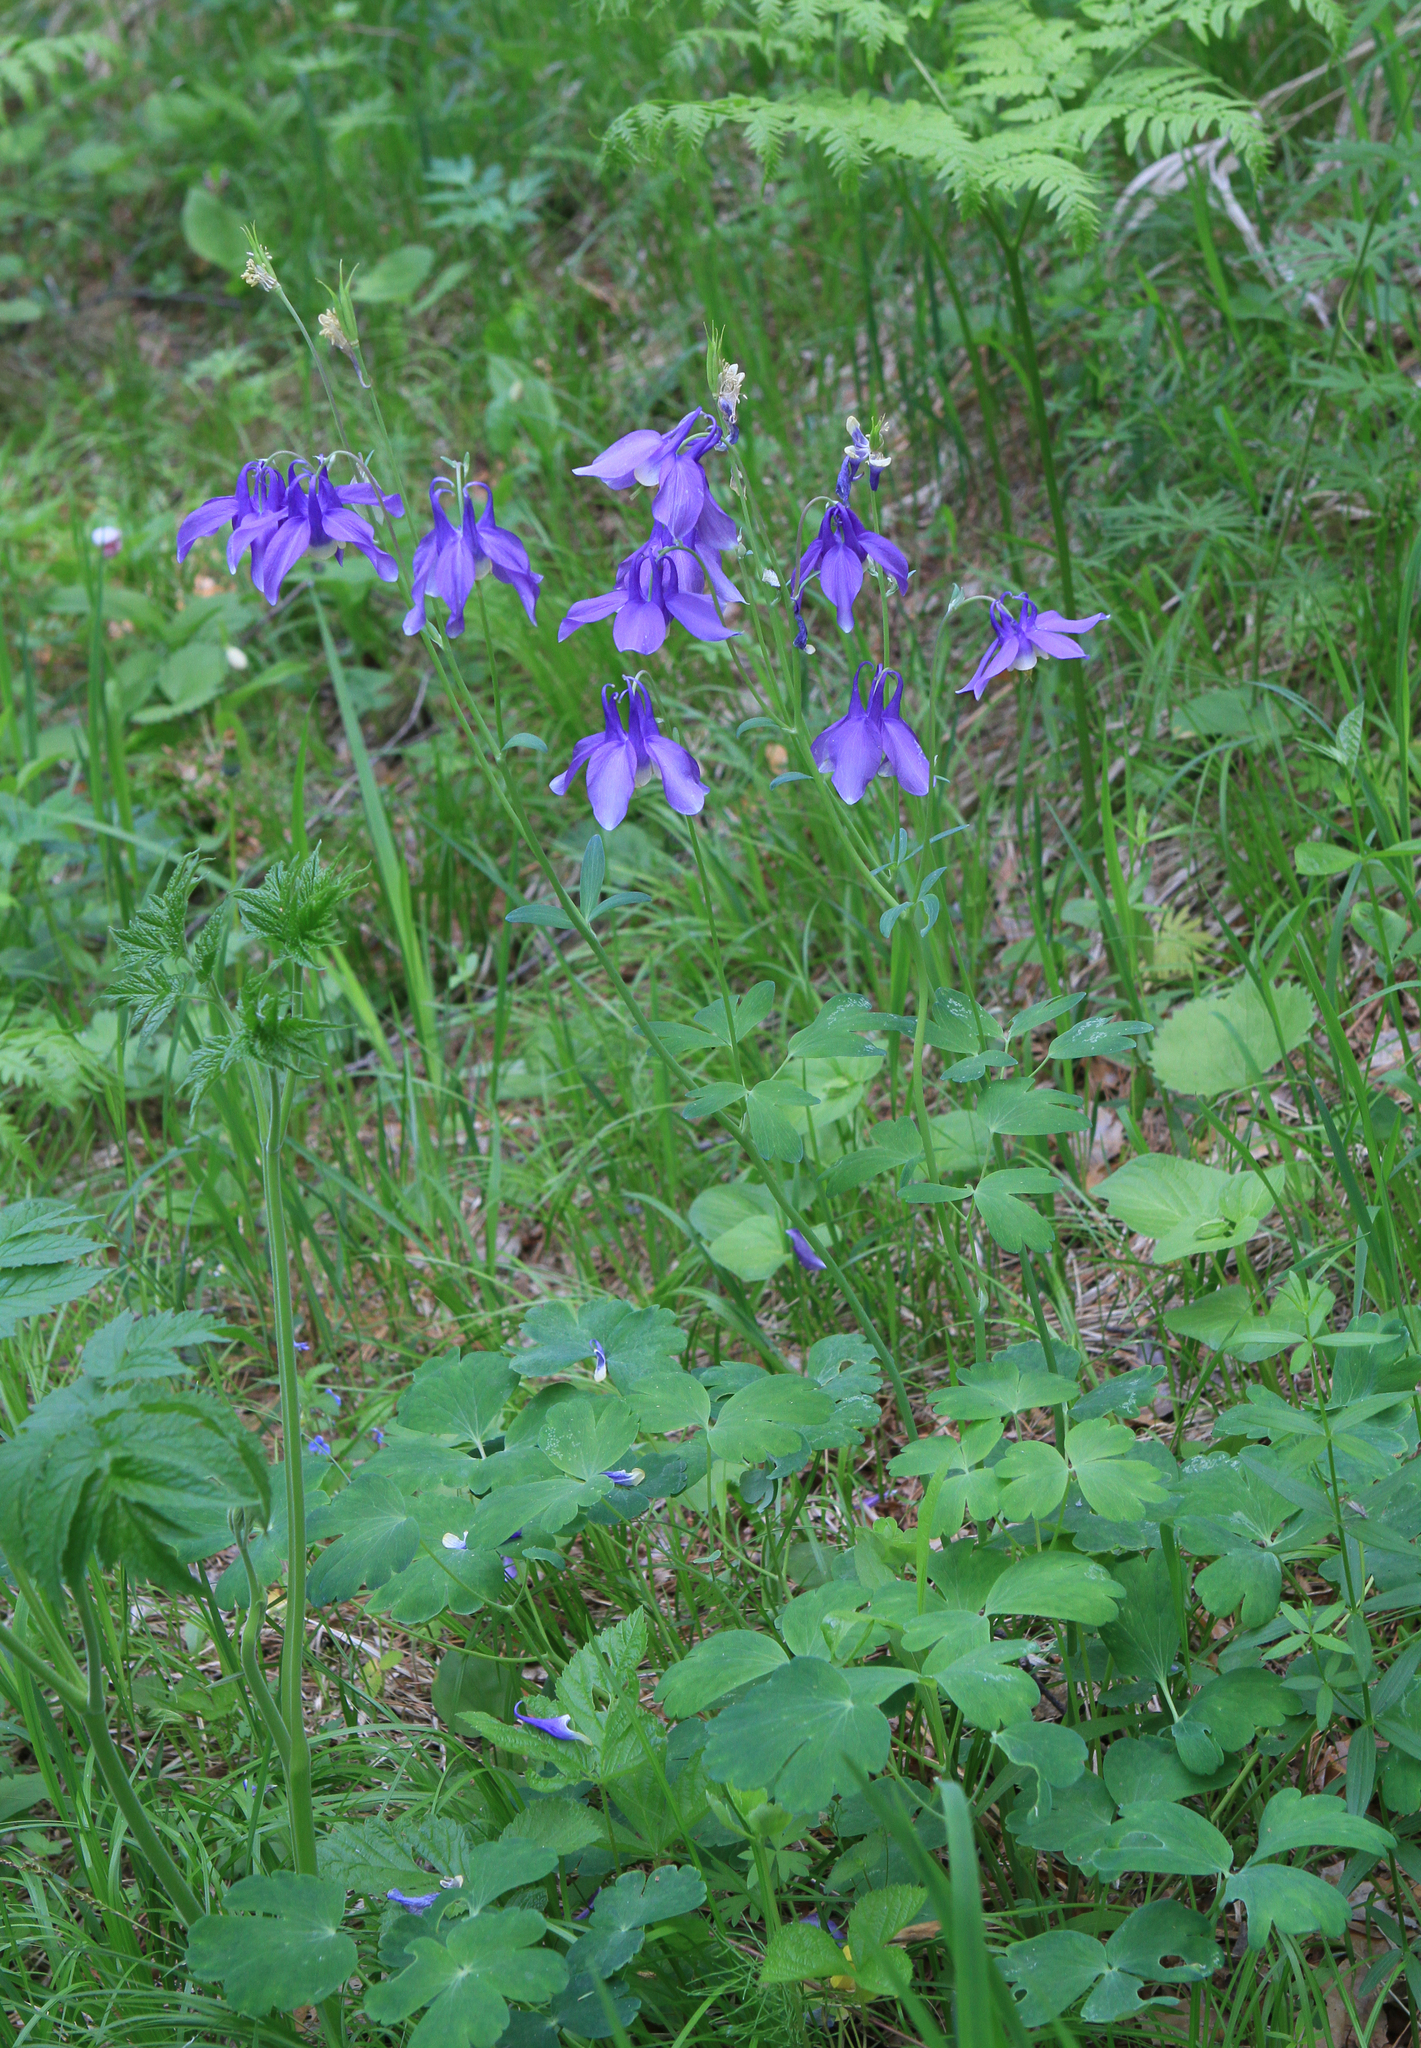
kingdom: Plantae
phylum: Tracheophyta
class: Magnoliopsida
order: Ranunculales
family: Ranunculaceae
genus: Aquilegia
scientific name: Aquilegia sibirica
